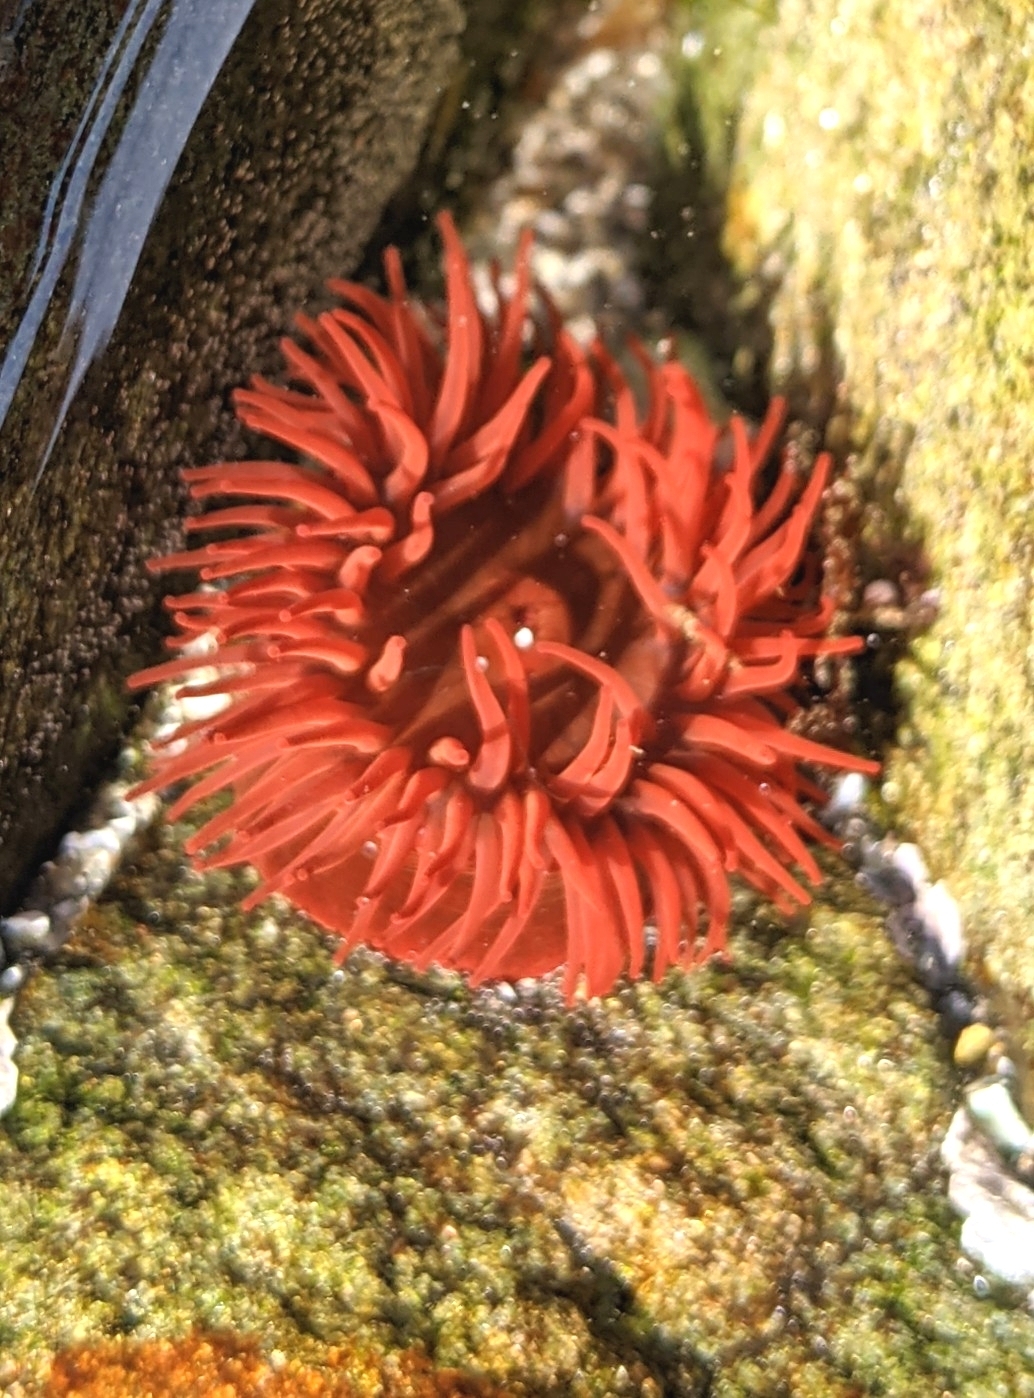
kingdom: Animalia
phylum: Cnidaria
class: Anthozoa
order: Actiniaria
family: Actiniidae
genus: Actinia
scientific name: Actinia equina
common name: Beadlet anemone
